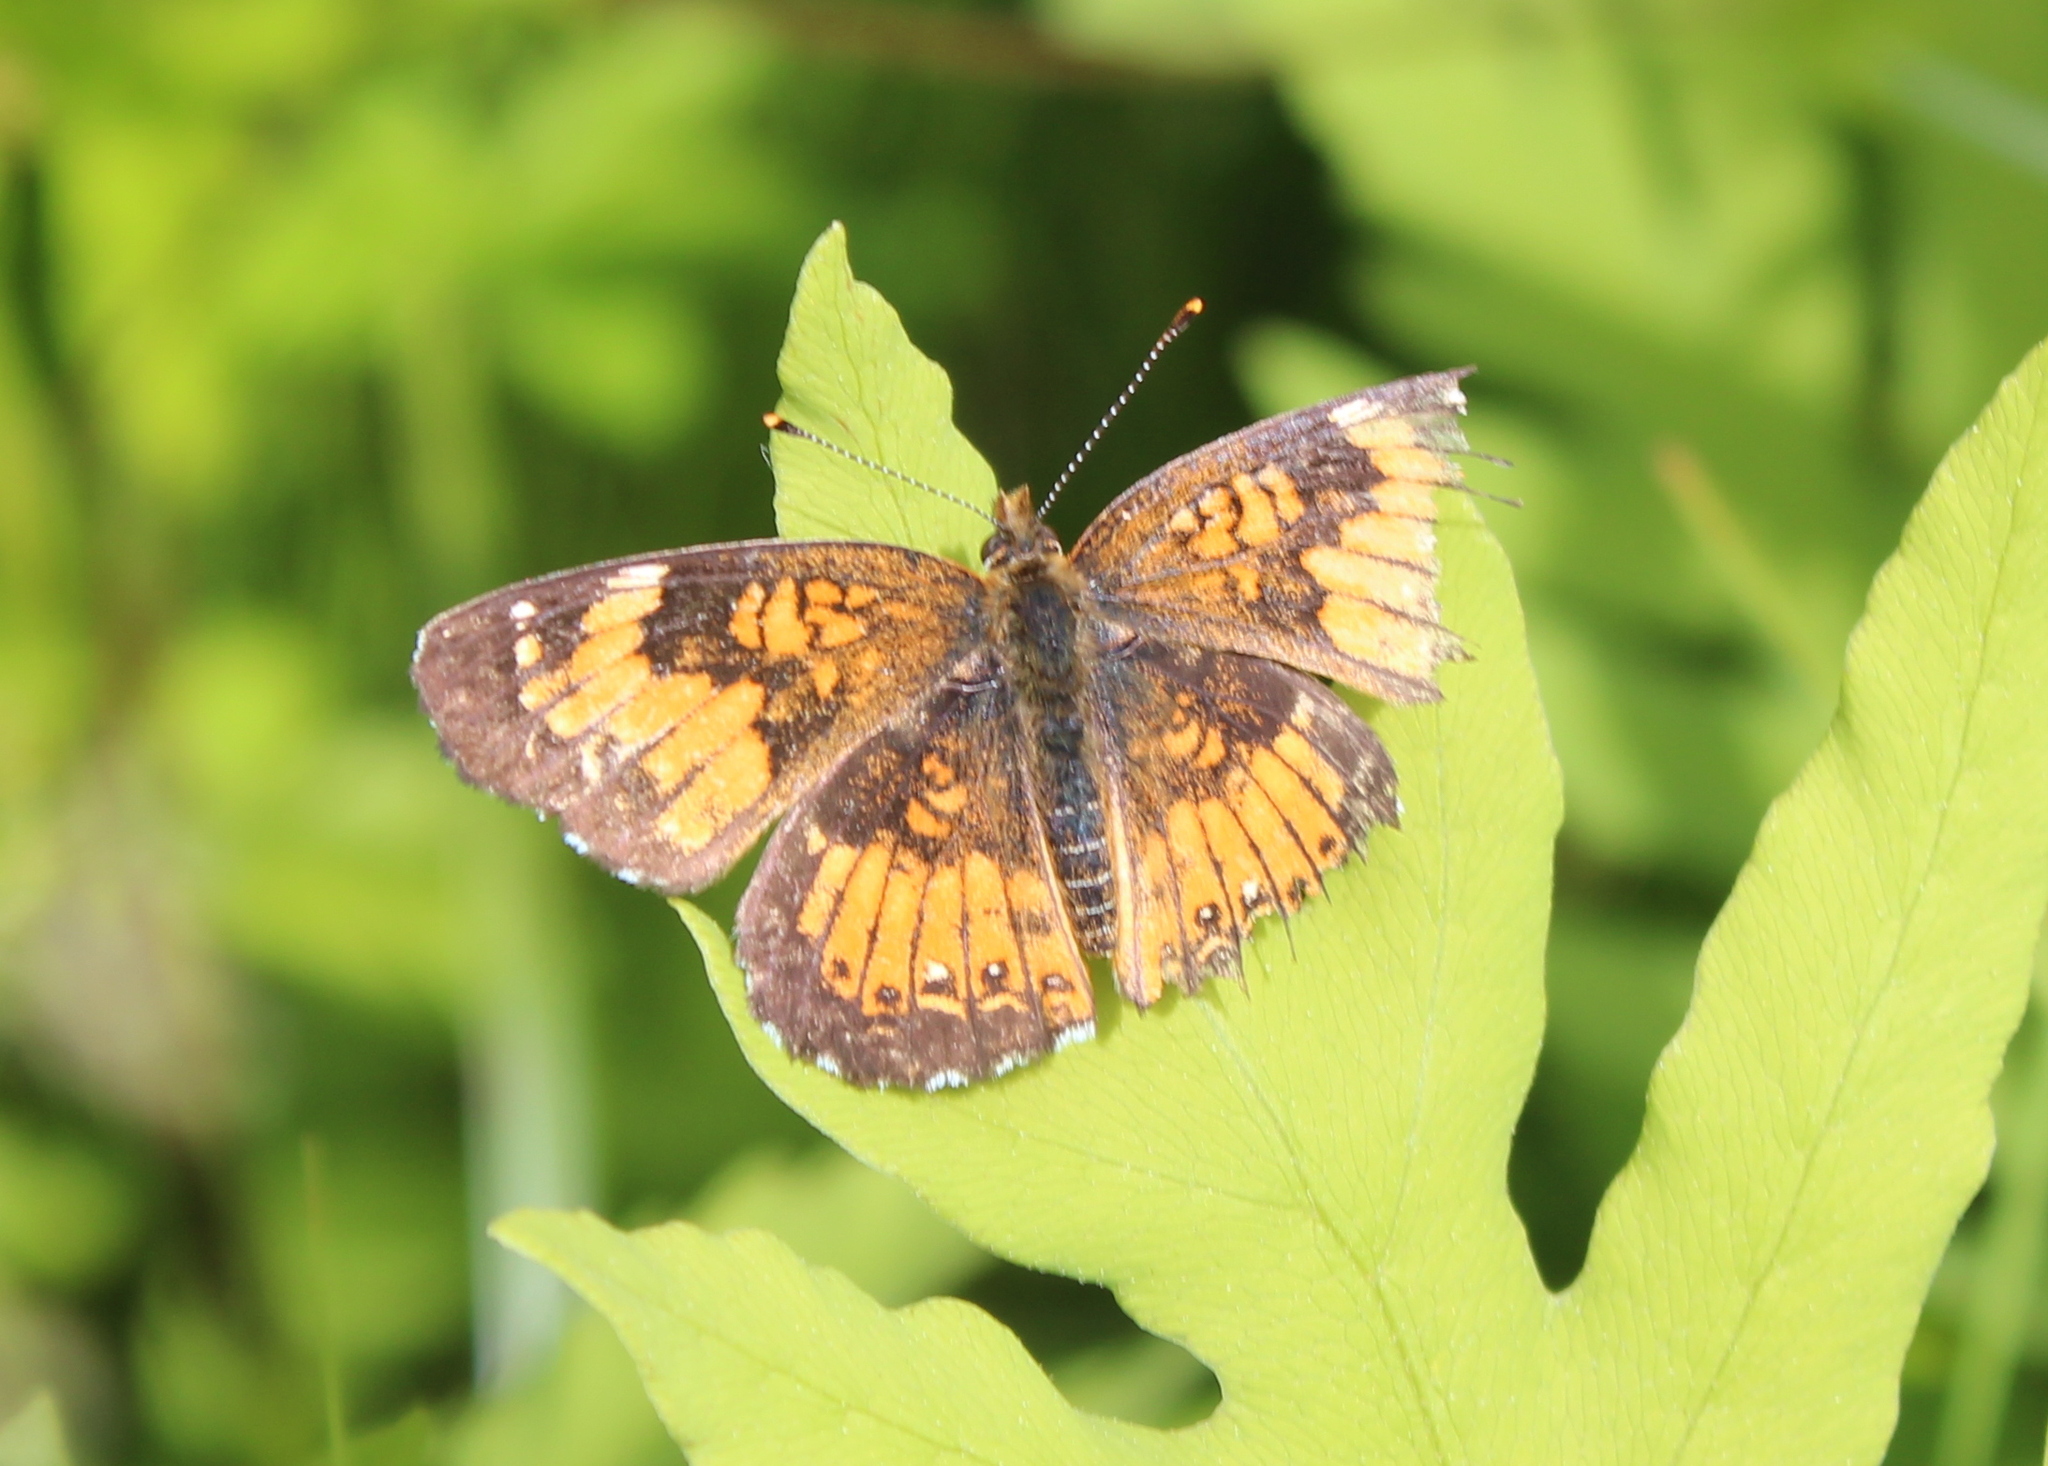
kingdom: Animalia
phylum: Arthropoda
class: Insecta
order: Lepidoptera
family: Nymphalidae
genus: Chlosyne
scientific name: Chlosyne harrisii
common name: Harris's checkerspot
